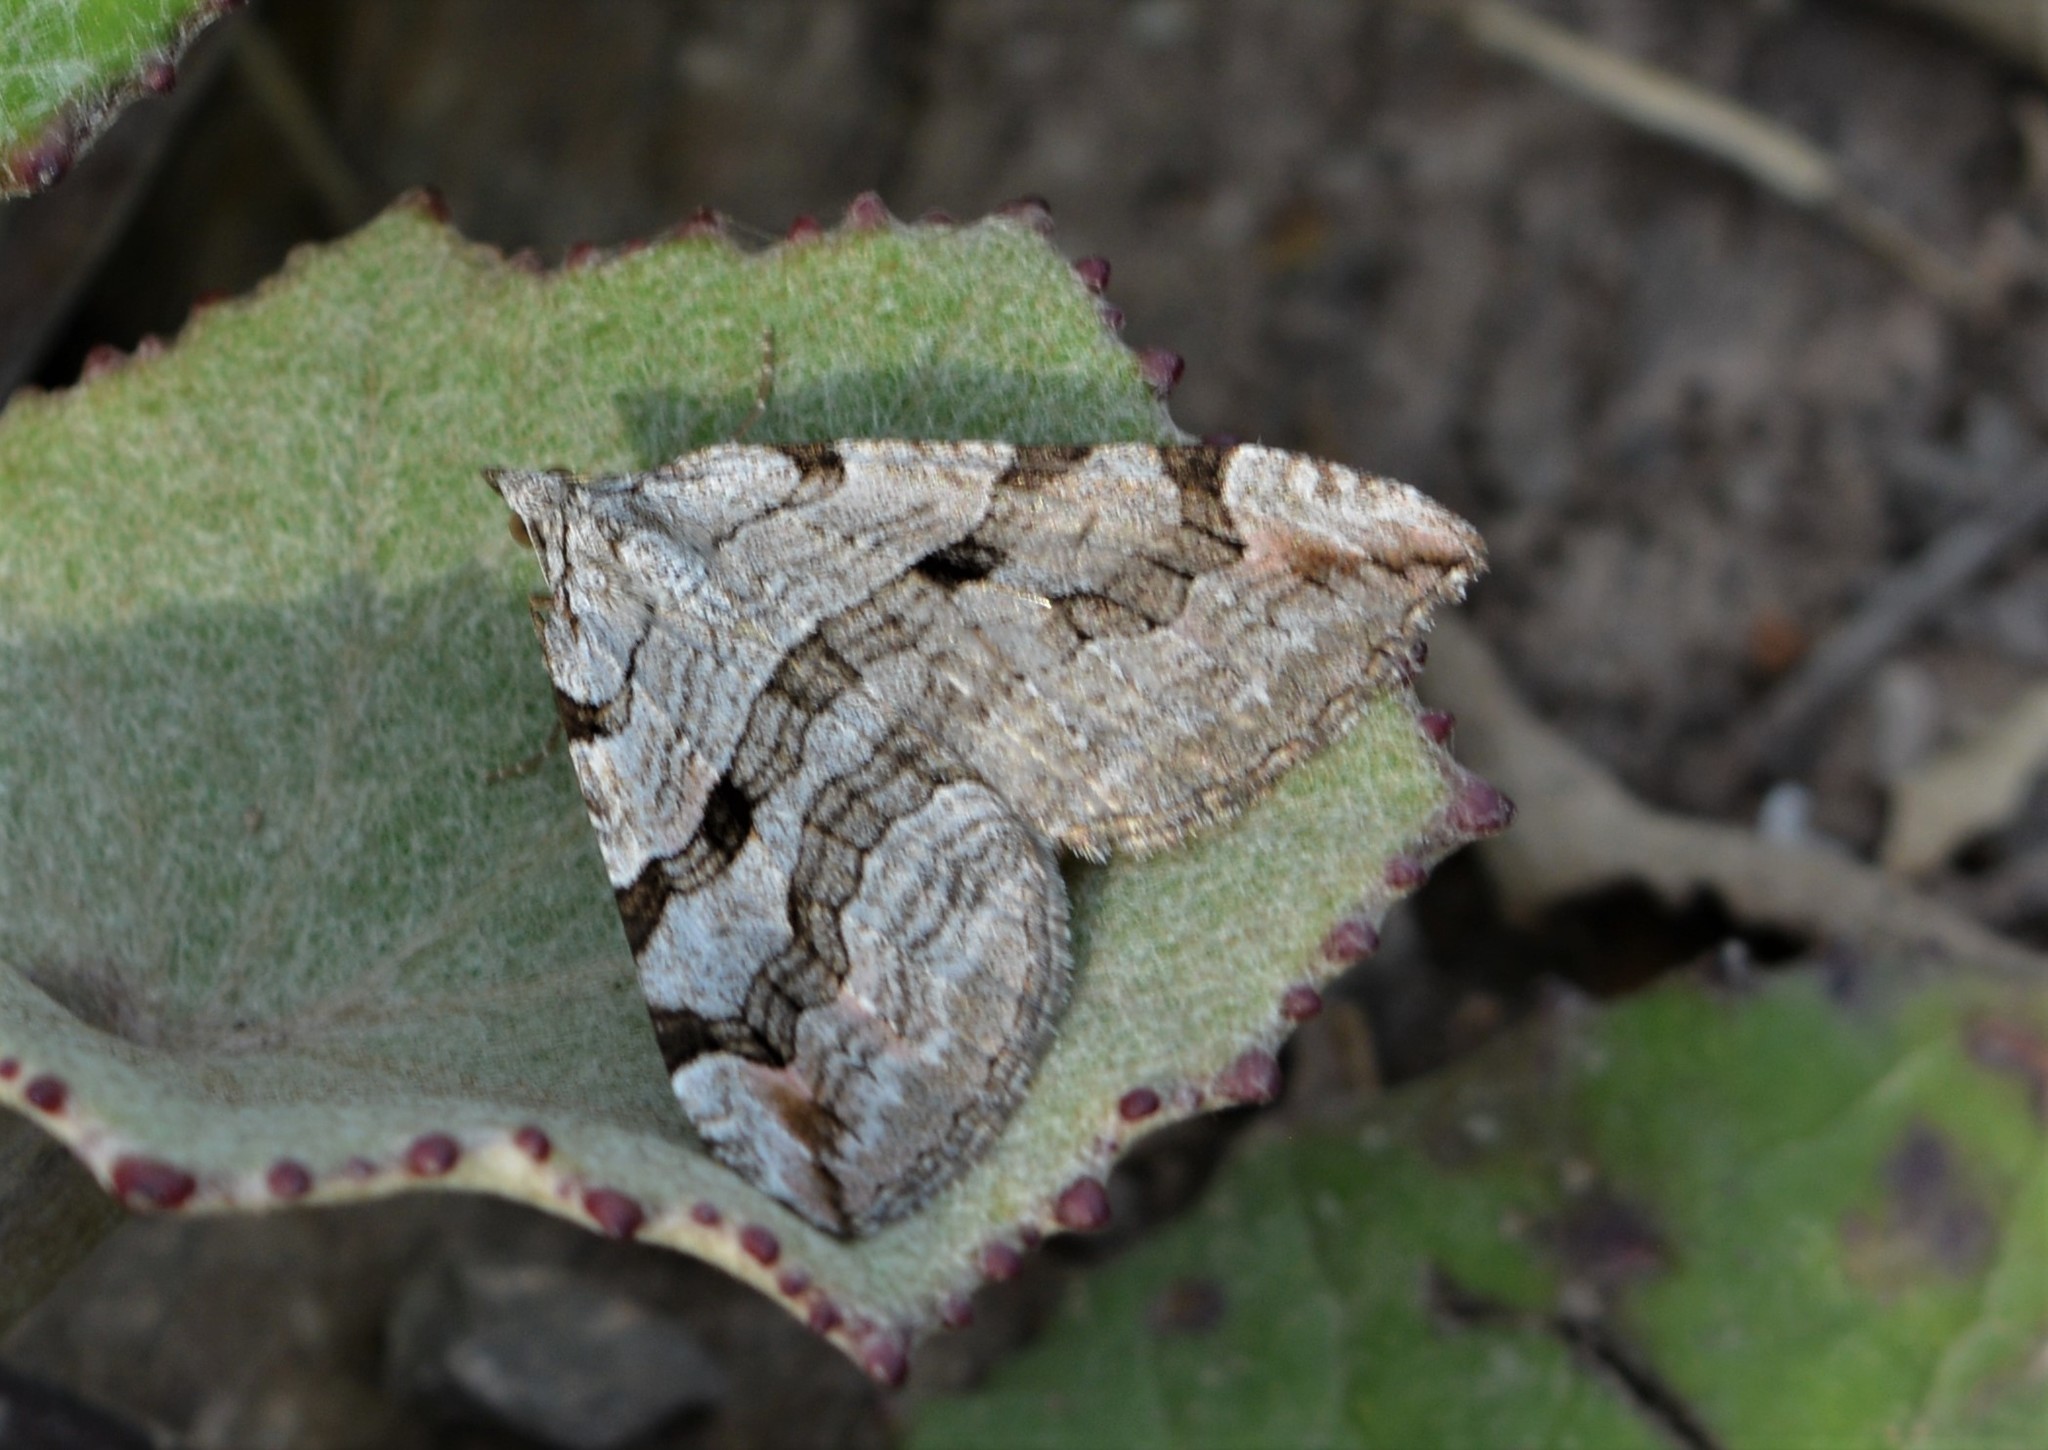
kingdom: Animalia
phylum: Arthropoda
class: Insecta
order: Lepidoptera
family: Geometridae
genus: Aplocera
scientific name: Aplocera plagiata
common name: Treble-bar
